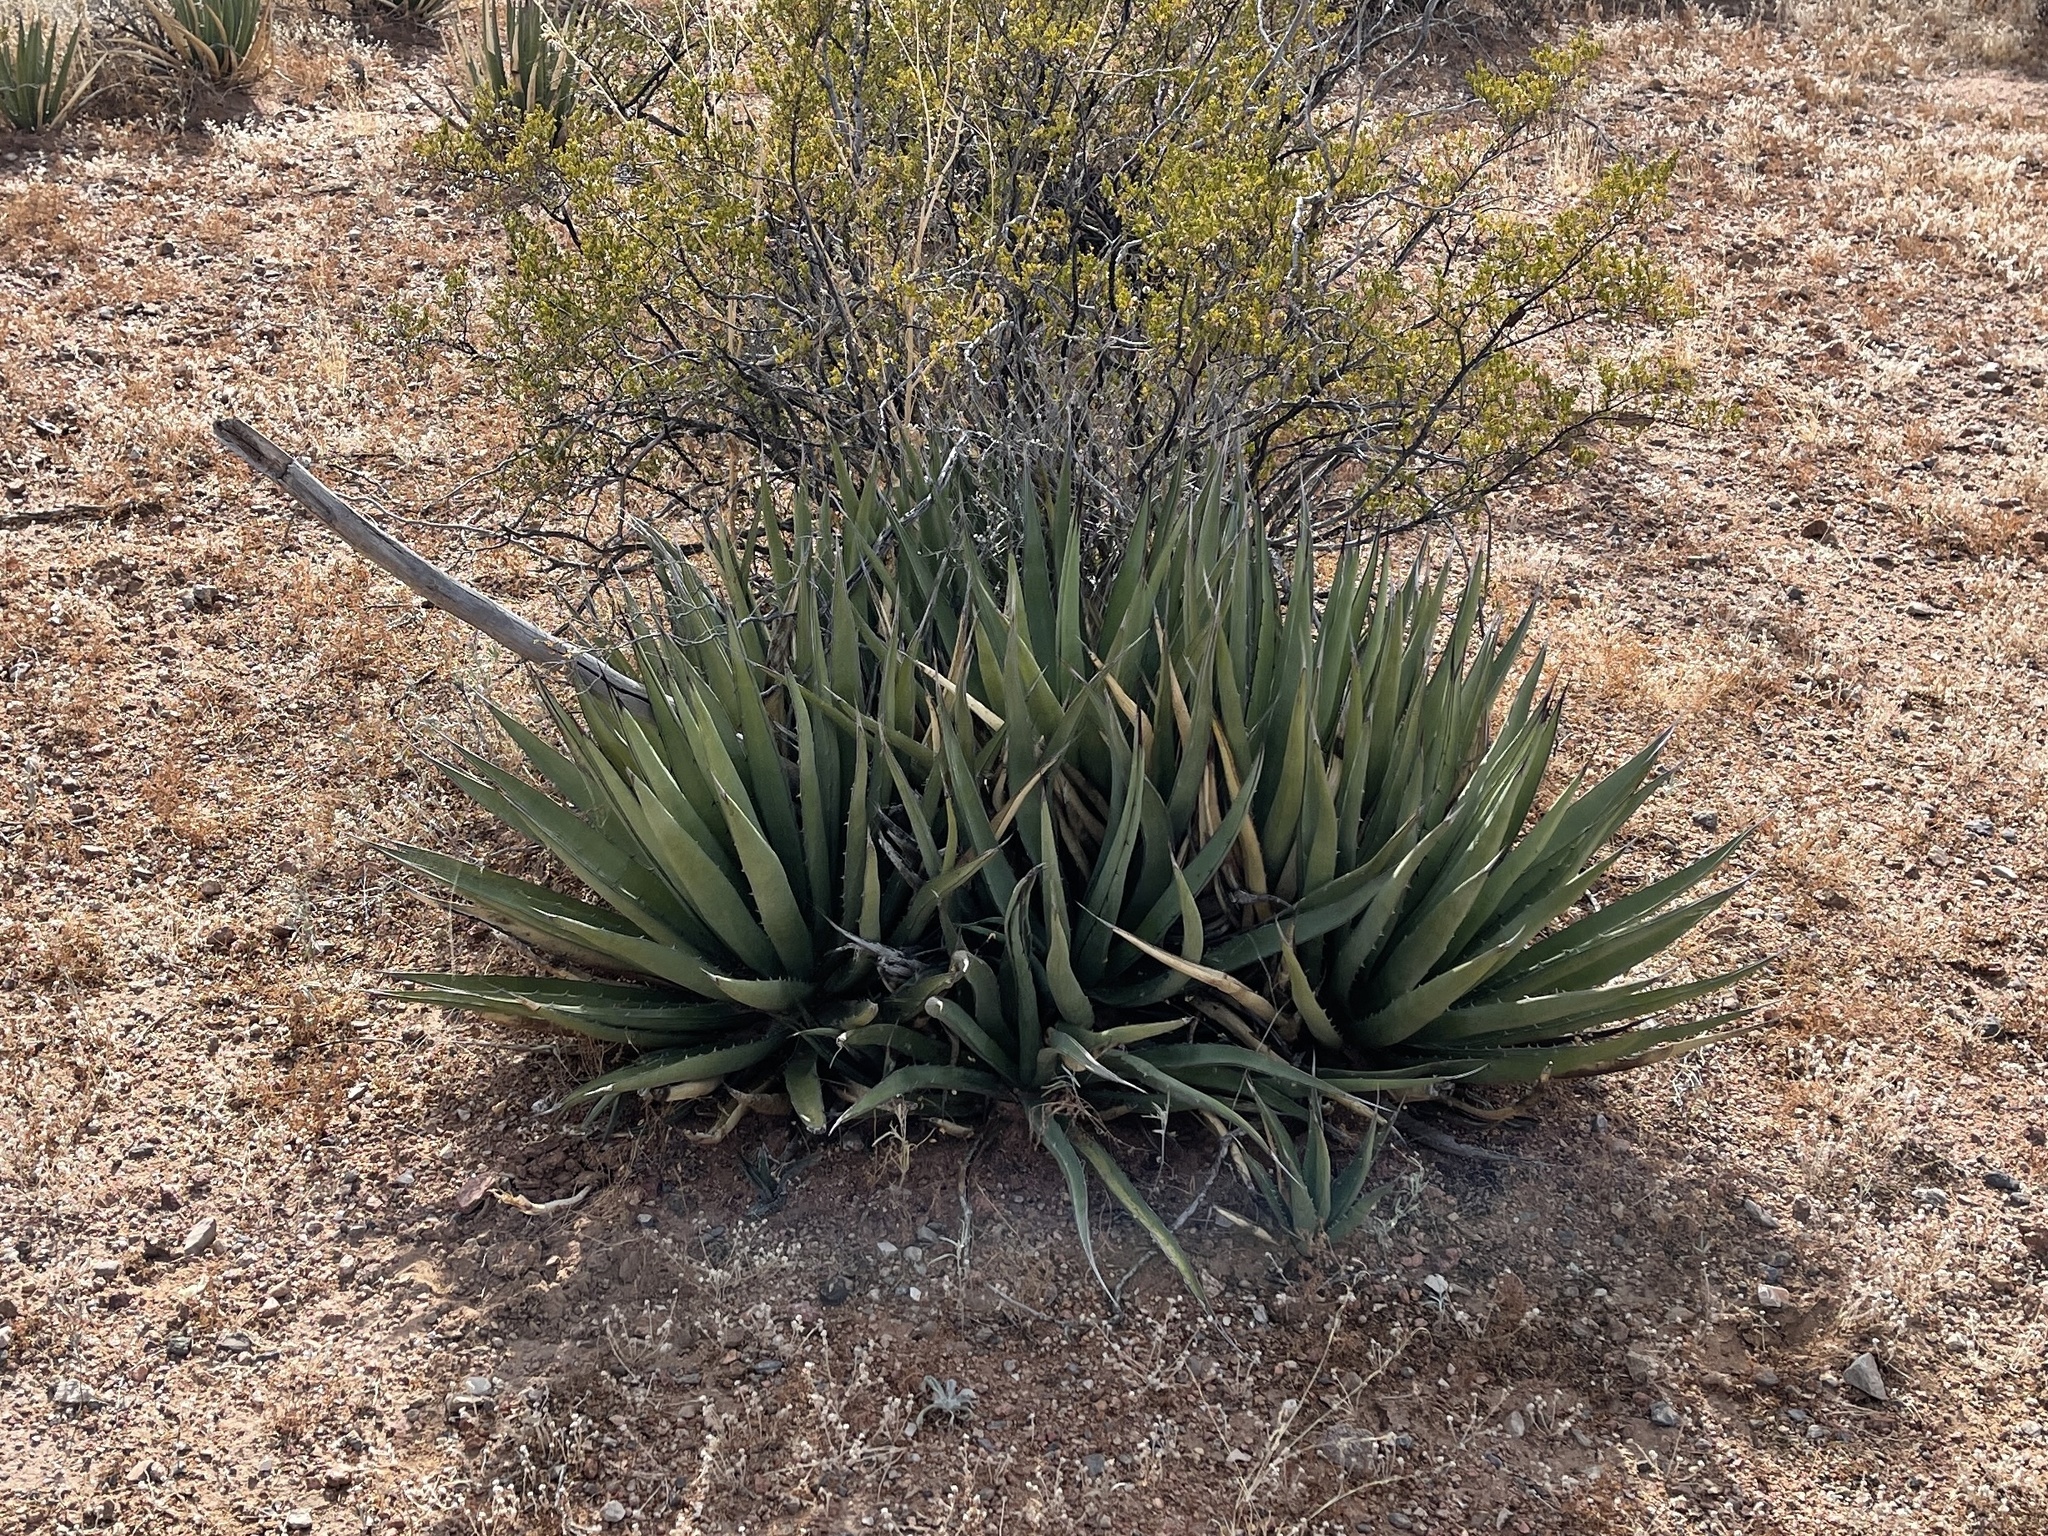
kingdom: Plantae
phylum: Tracheophyta
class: Liliopsida
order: Asparagales
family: Asparagaceae
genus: Agave
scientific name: Agave lechuguilla
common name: Lecheguilla agave
